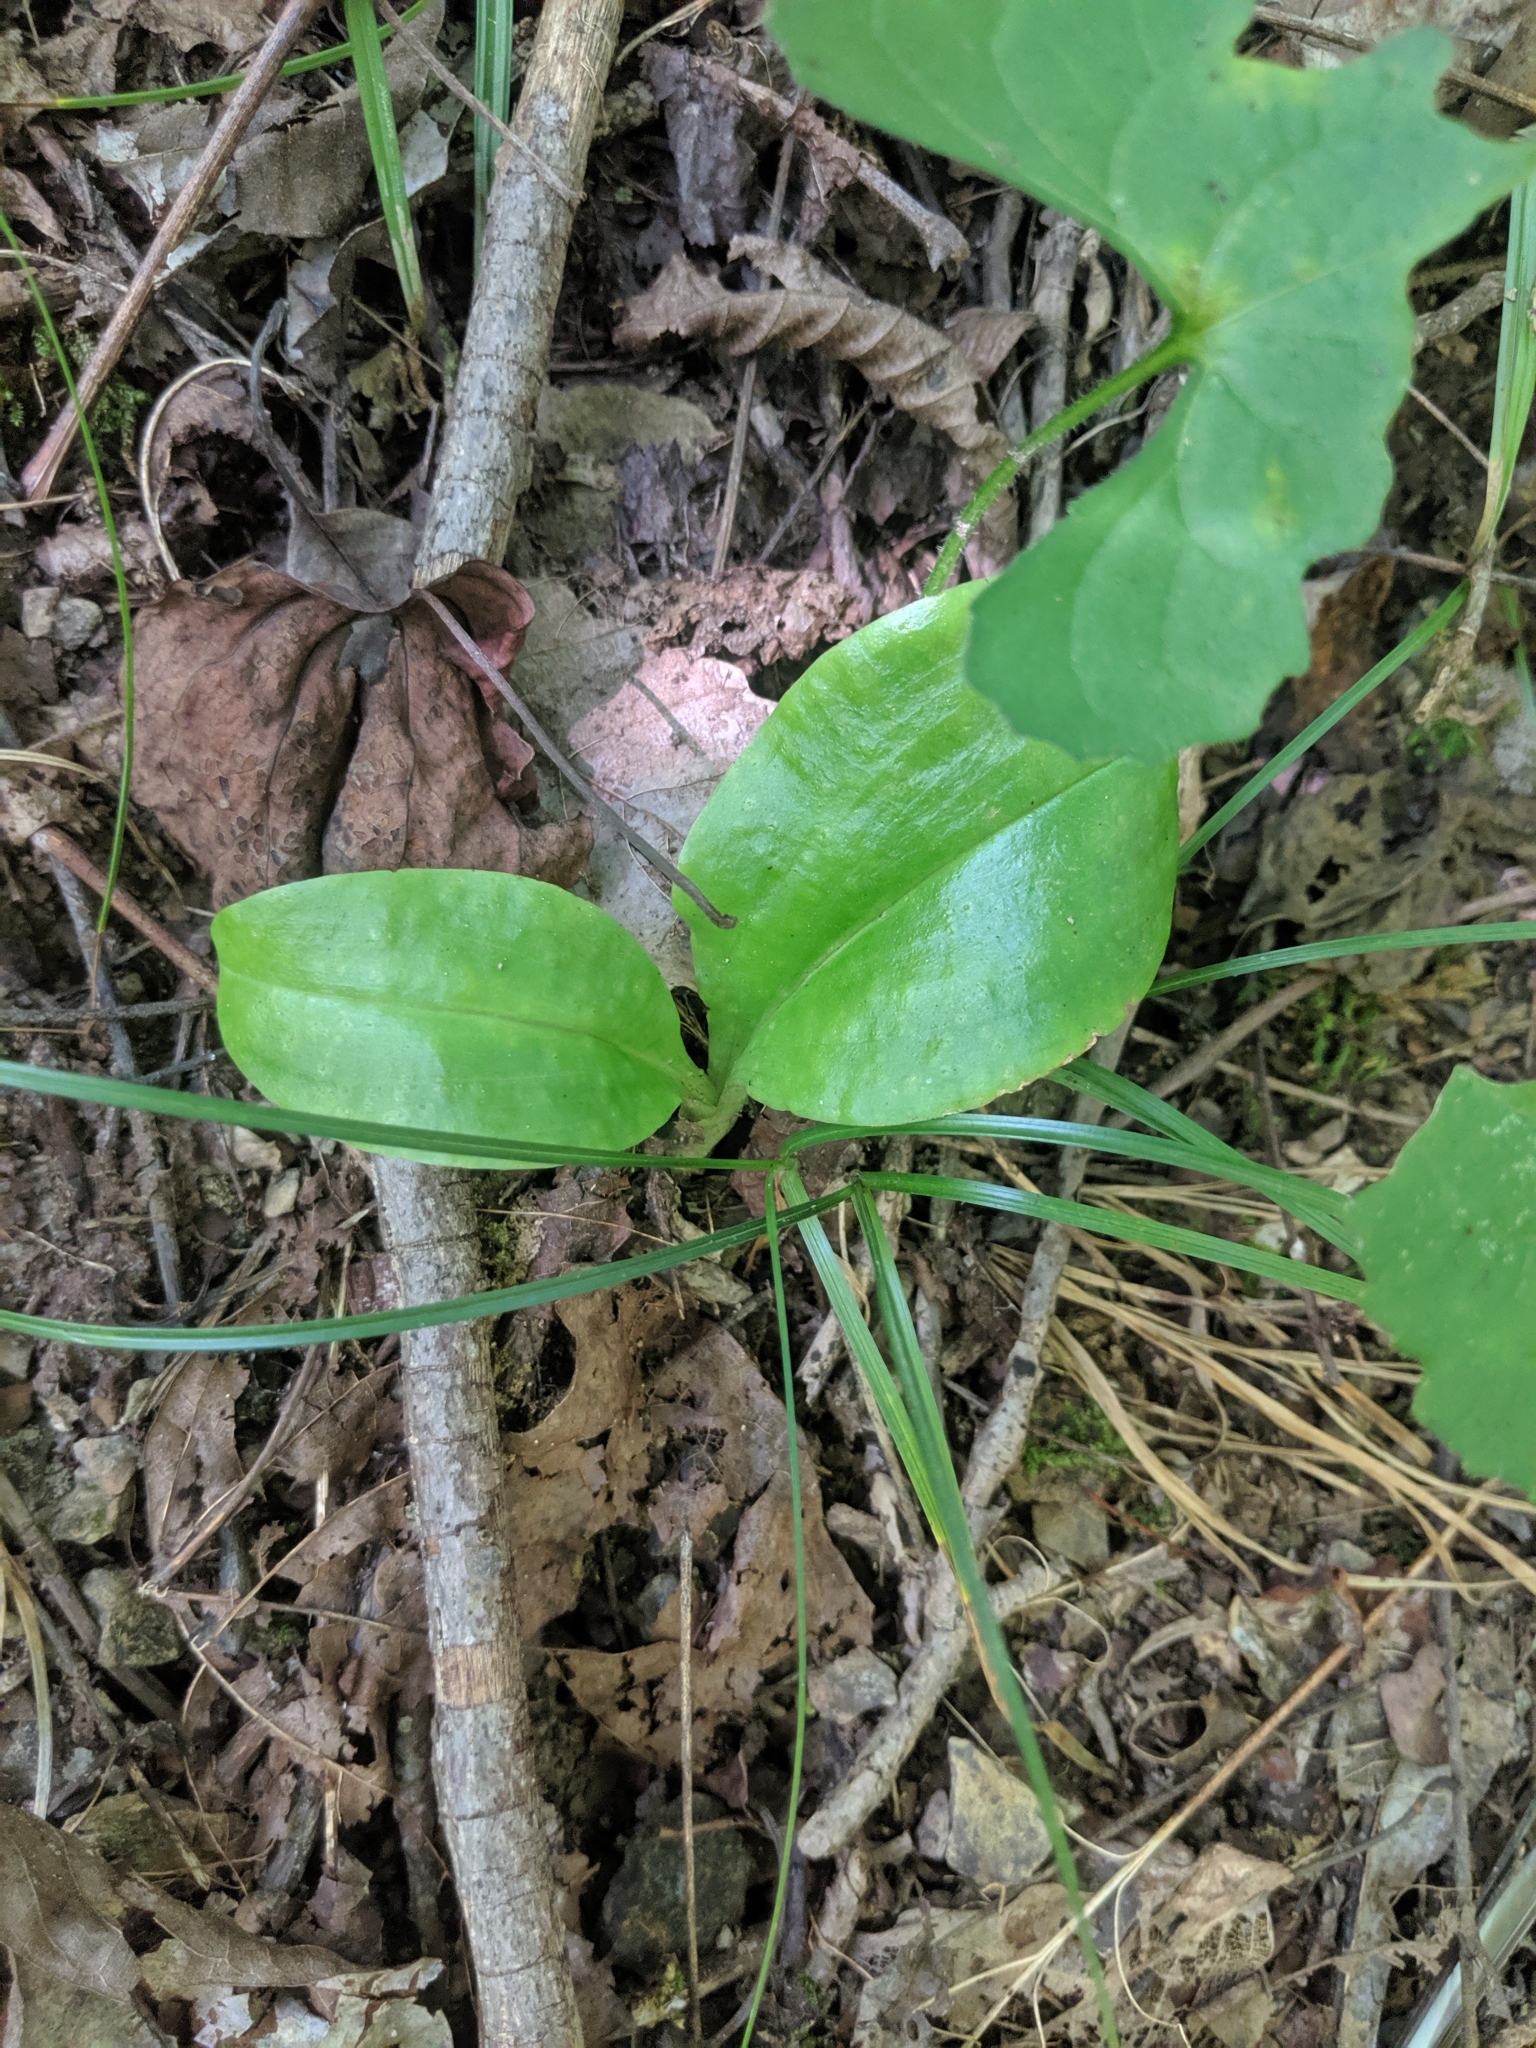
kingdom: Plantae
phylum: Tracheophyta
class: Liliopsida
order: Asparagales
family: Orchidaceae
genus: Liparis
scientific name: Liparis liliifolia
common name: Brown wide-lip orchid
